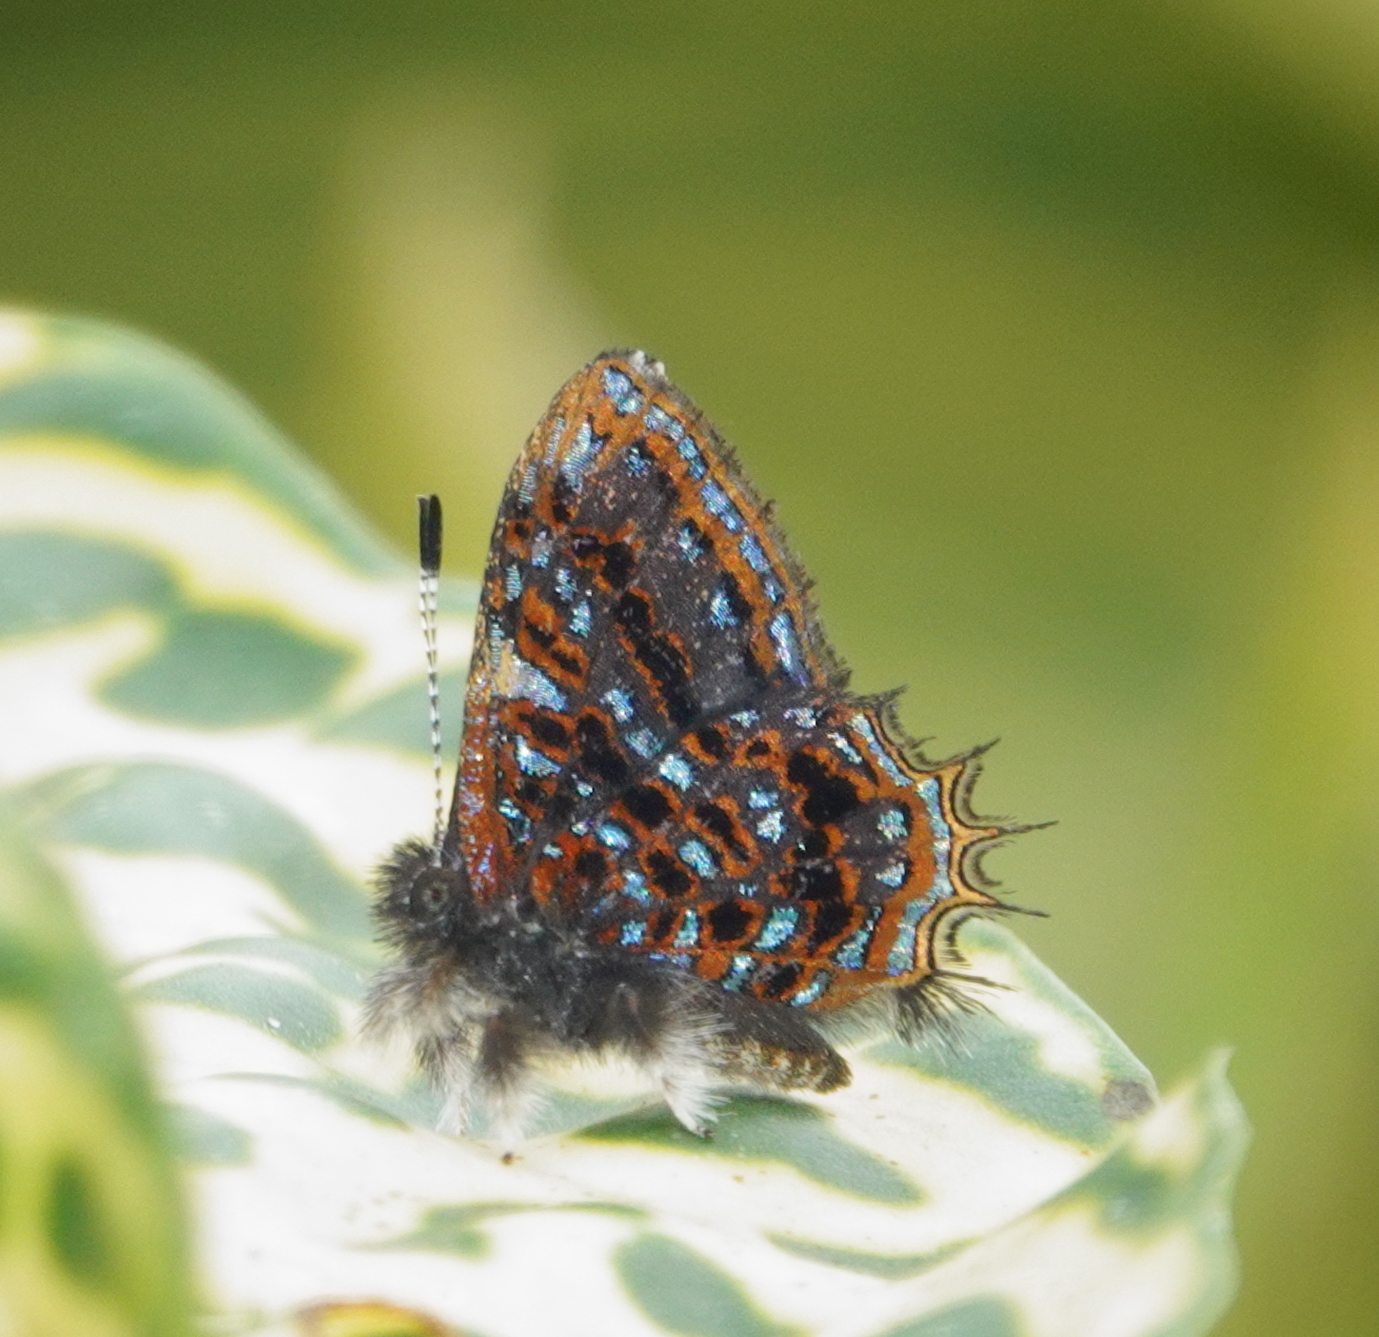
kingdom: Animalia
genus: Charis
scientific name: Charis
